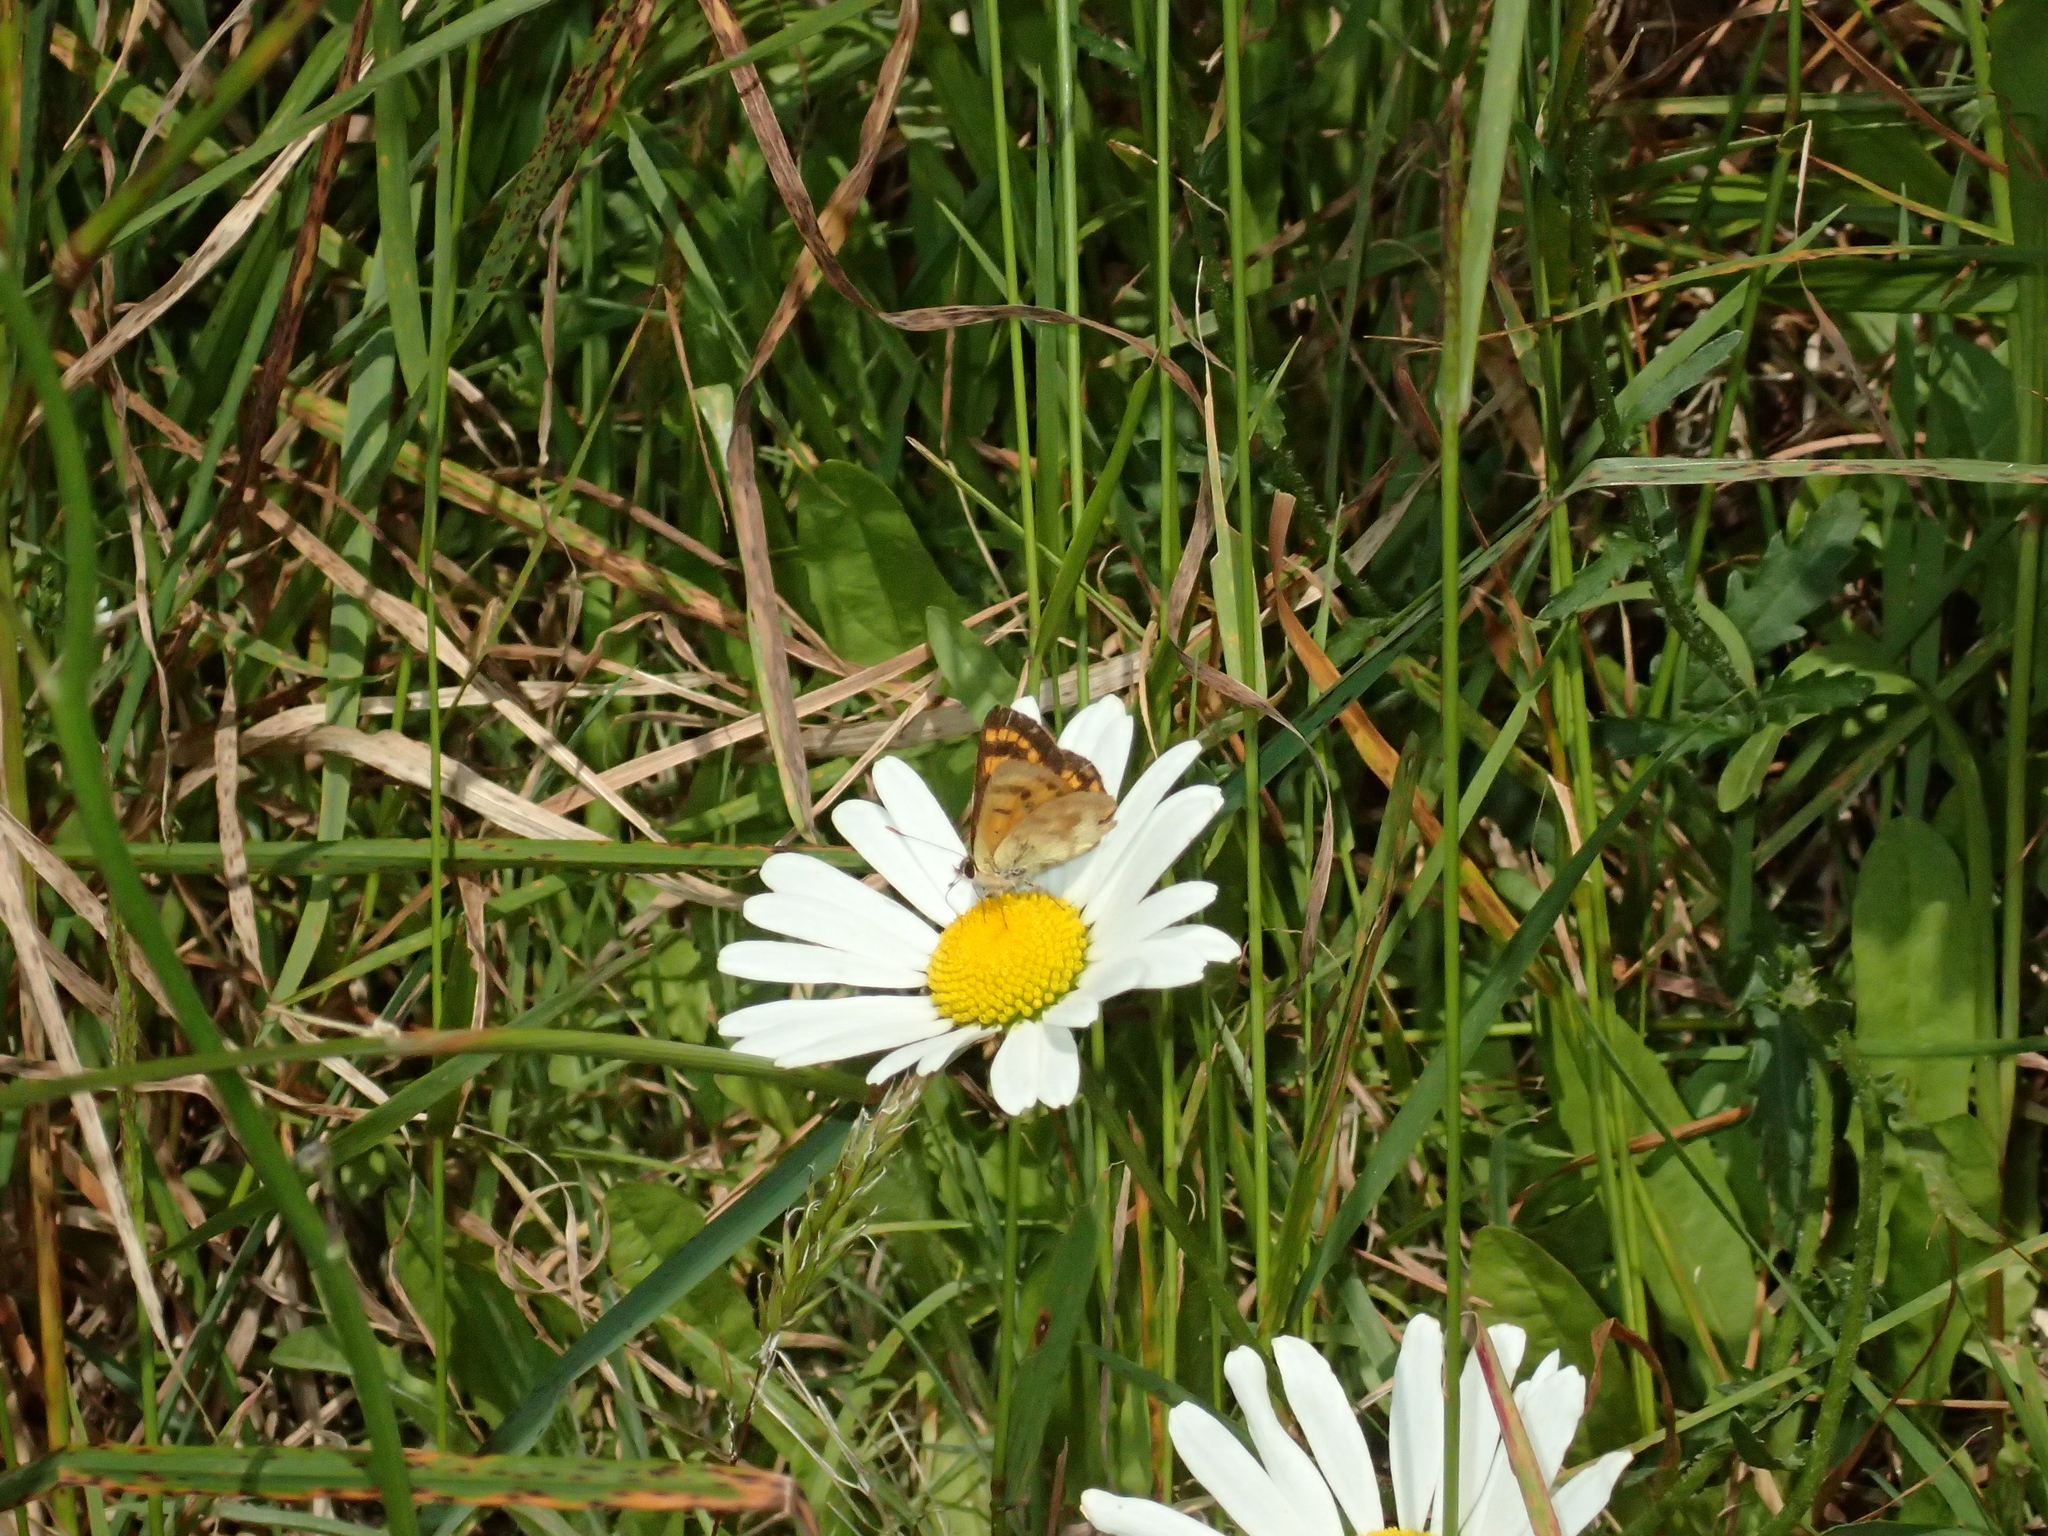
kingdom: Animalia
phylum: Arthropoda
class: Insecta
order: Lepidoptera
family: Lycaenidae
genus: Lycaena
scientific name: Lycaena
